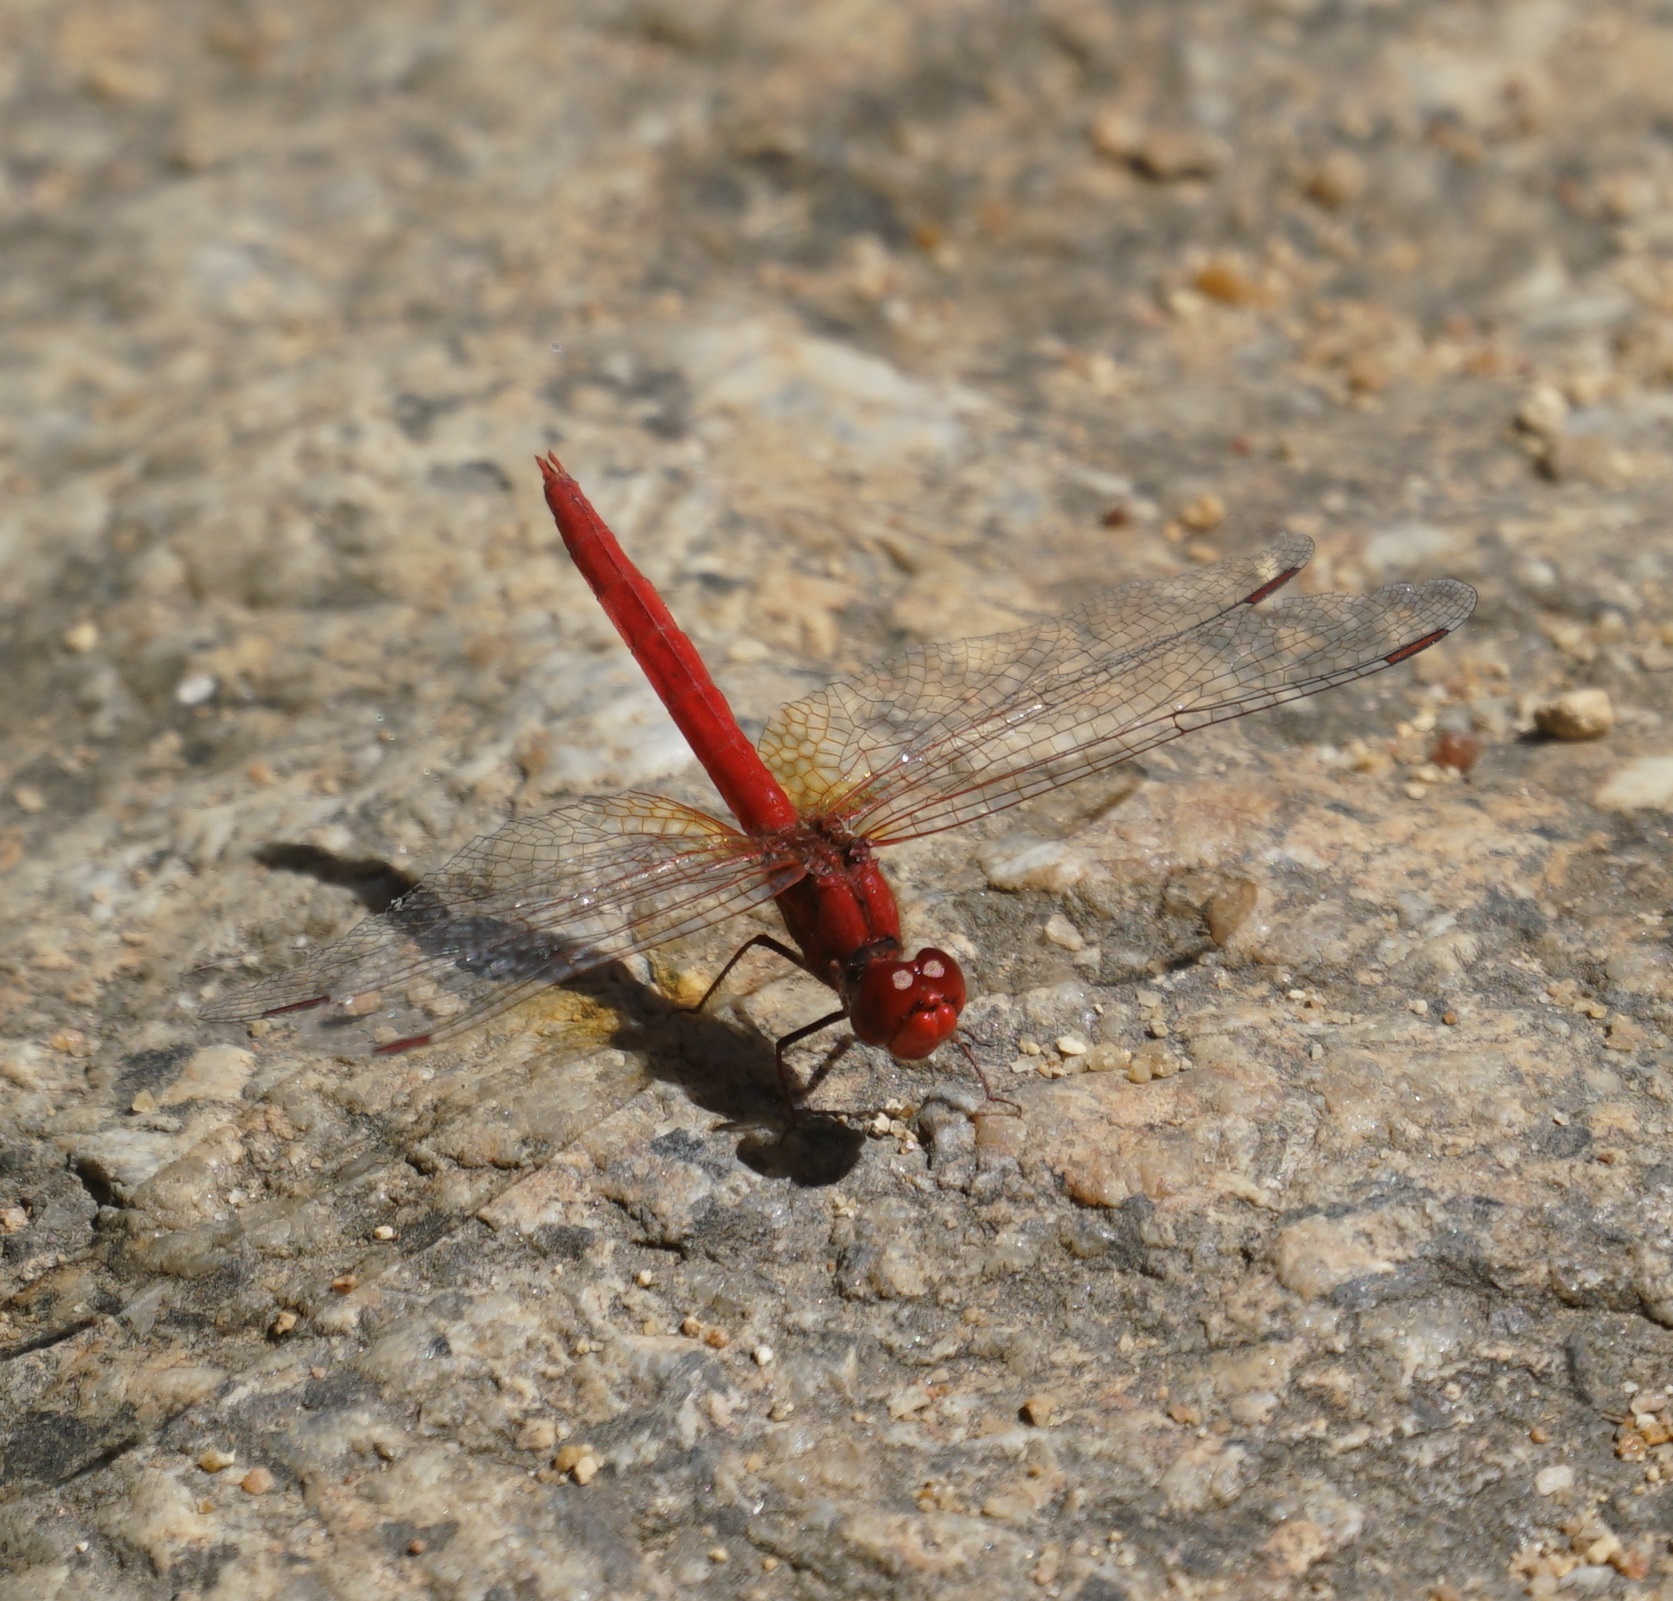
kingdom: Animalia
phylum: Arthropoda
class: Insecta
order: Odonata
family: Libellulidae
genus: Diplacodes
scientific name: Diplacodes haematodes
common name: Scarlet percher
